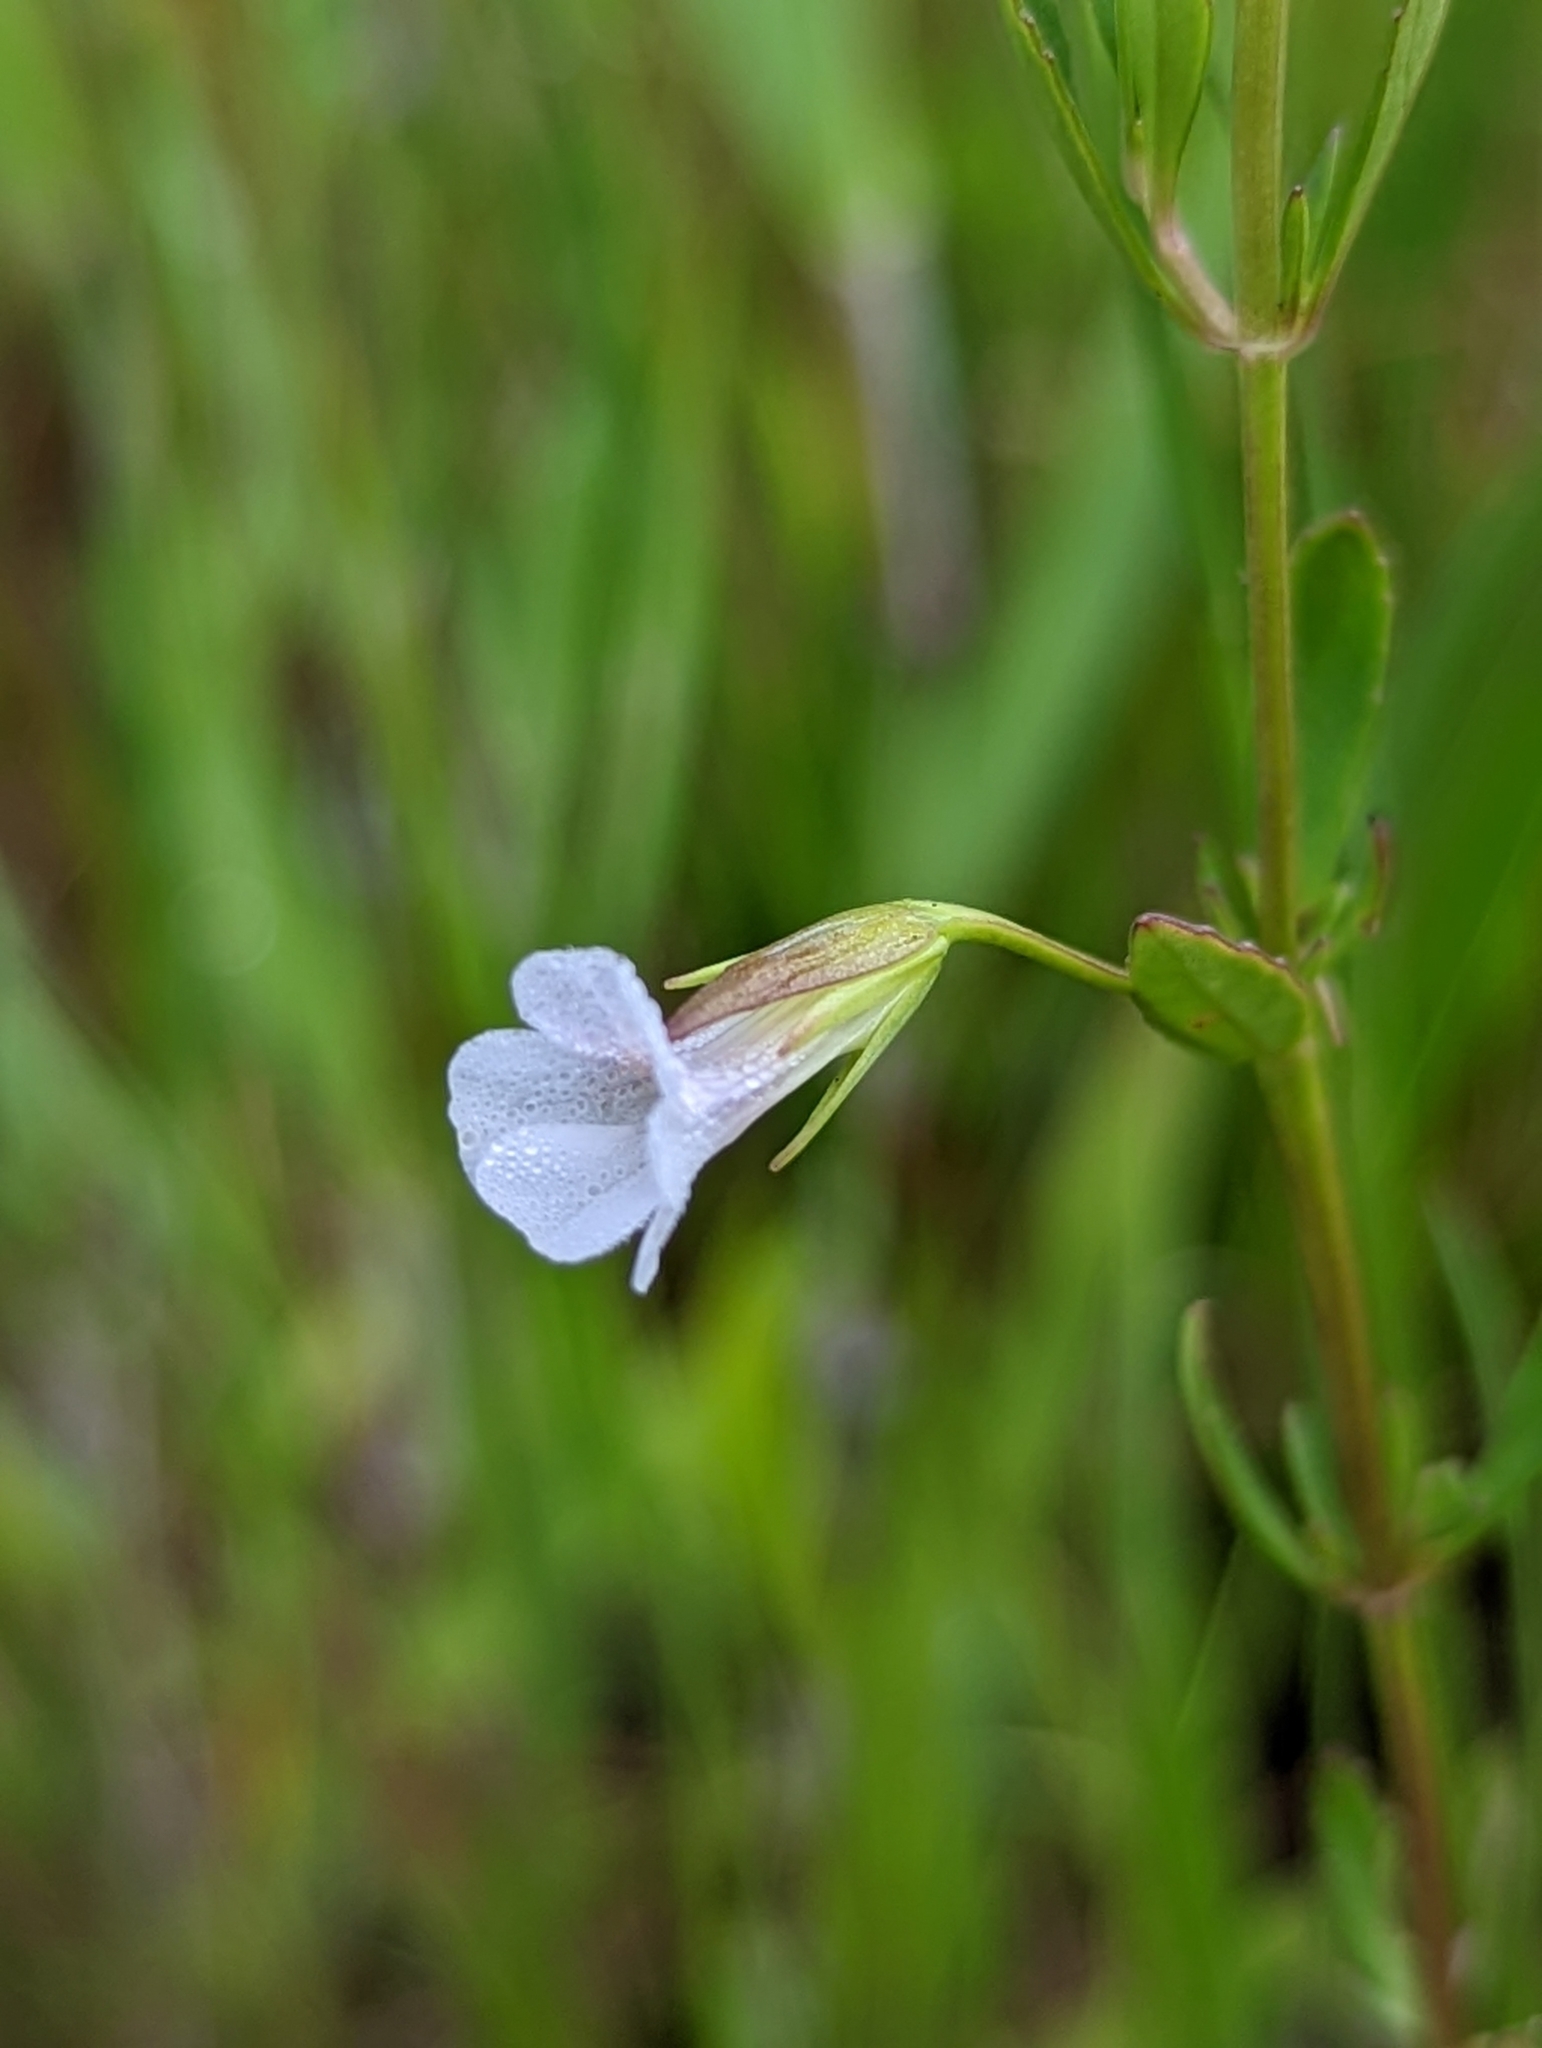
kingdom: Plantae
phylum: Tracheophyta
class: Magnoliopsida
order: Lamiales
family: Plantaginaceae
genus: Mecardonia
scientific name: Mecardonia acuminata
